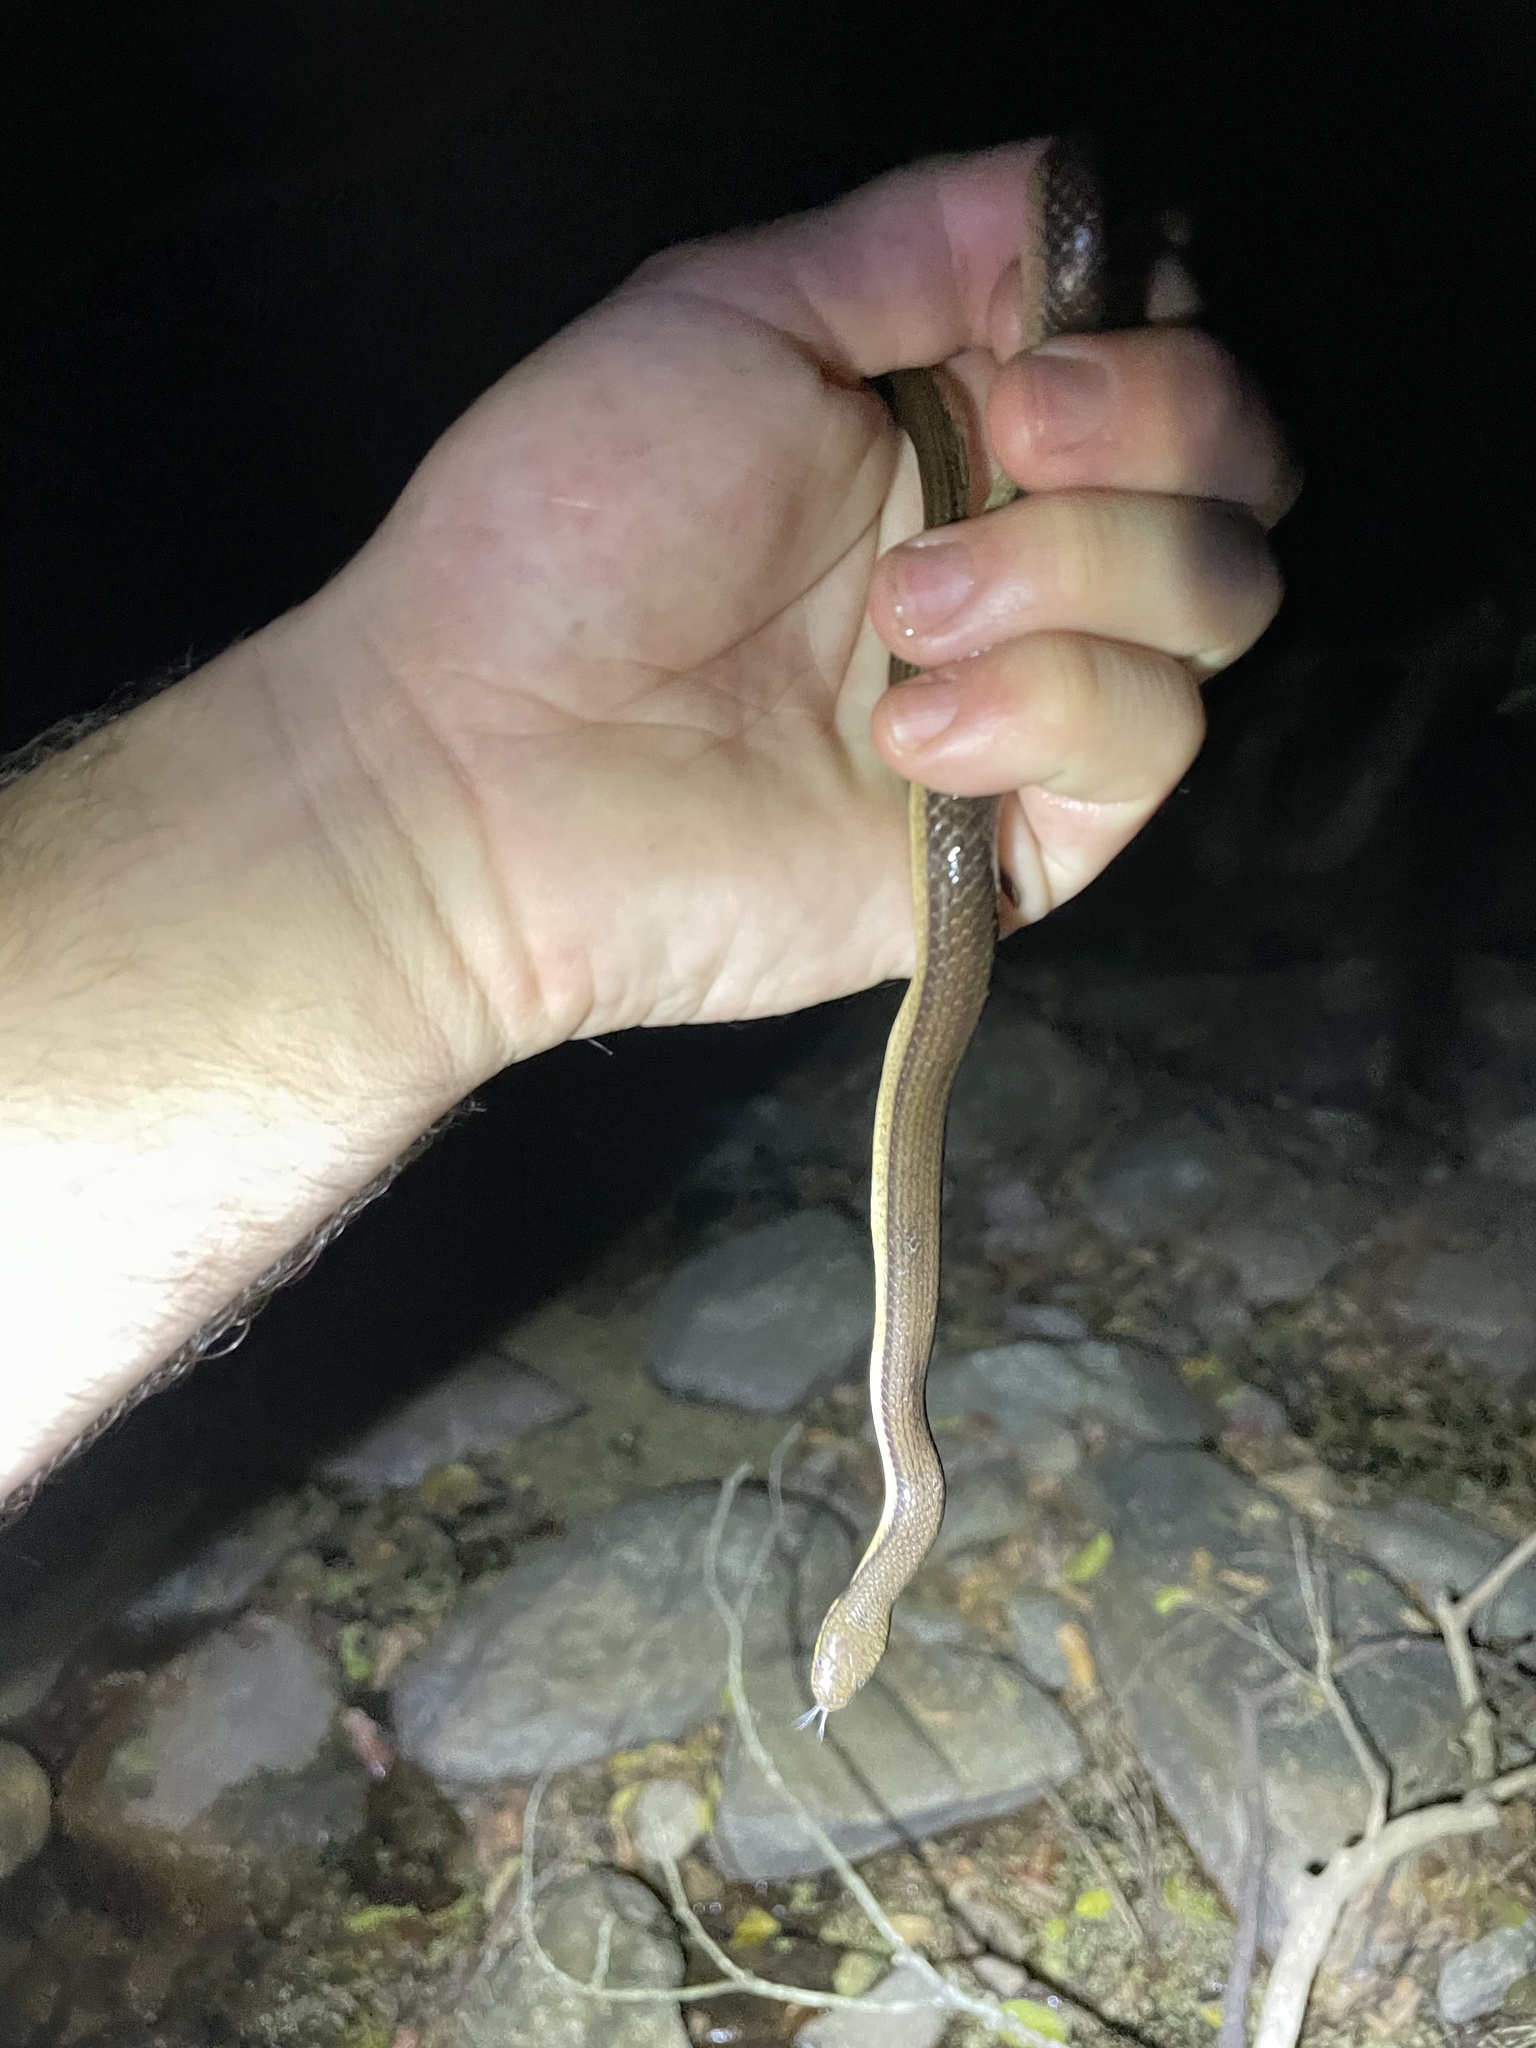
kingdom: Animalia
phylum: Chordata
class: Squamata
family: Colubridae
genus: Opisthotropis
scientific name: Opisthotropis lateralis
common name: Tonkin mountain keelback
